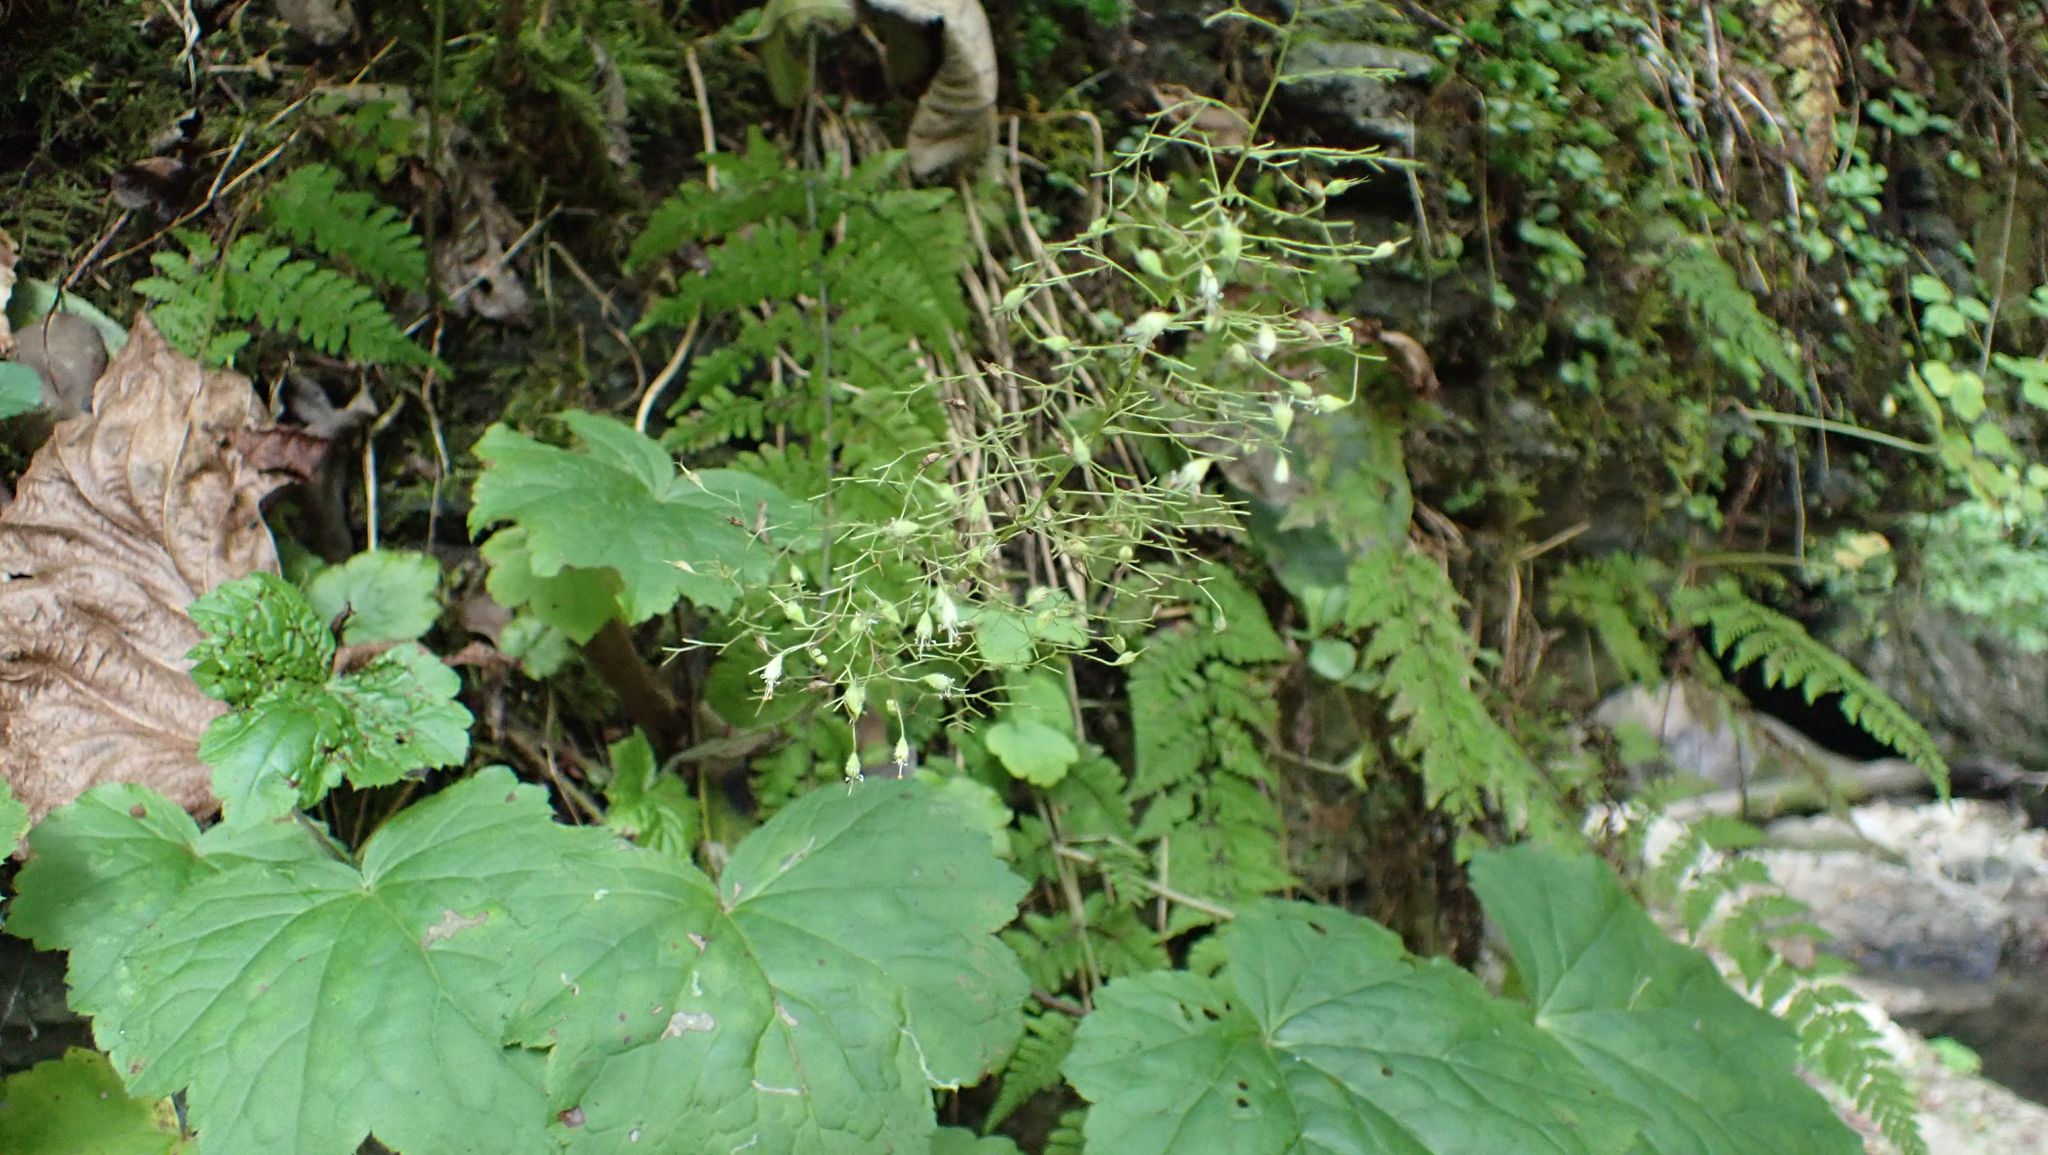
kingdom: Plantae
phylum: Tracheophyta
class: Magnoliopsida
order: Saxifragales
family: Saxifragaceae
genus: Heuchera
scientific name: Heuchera villosa
